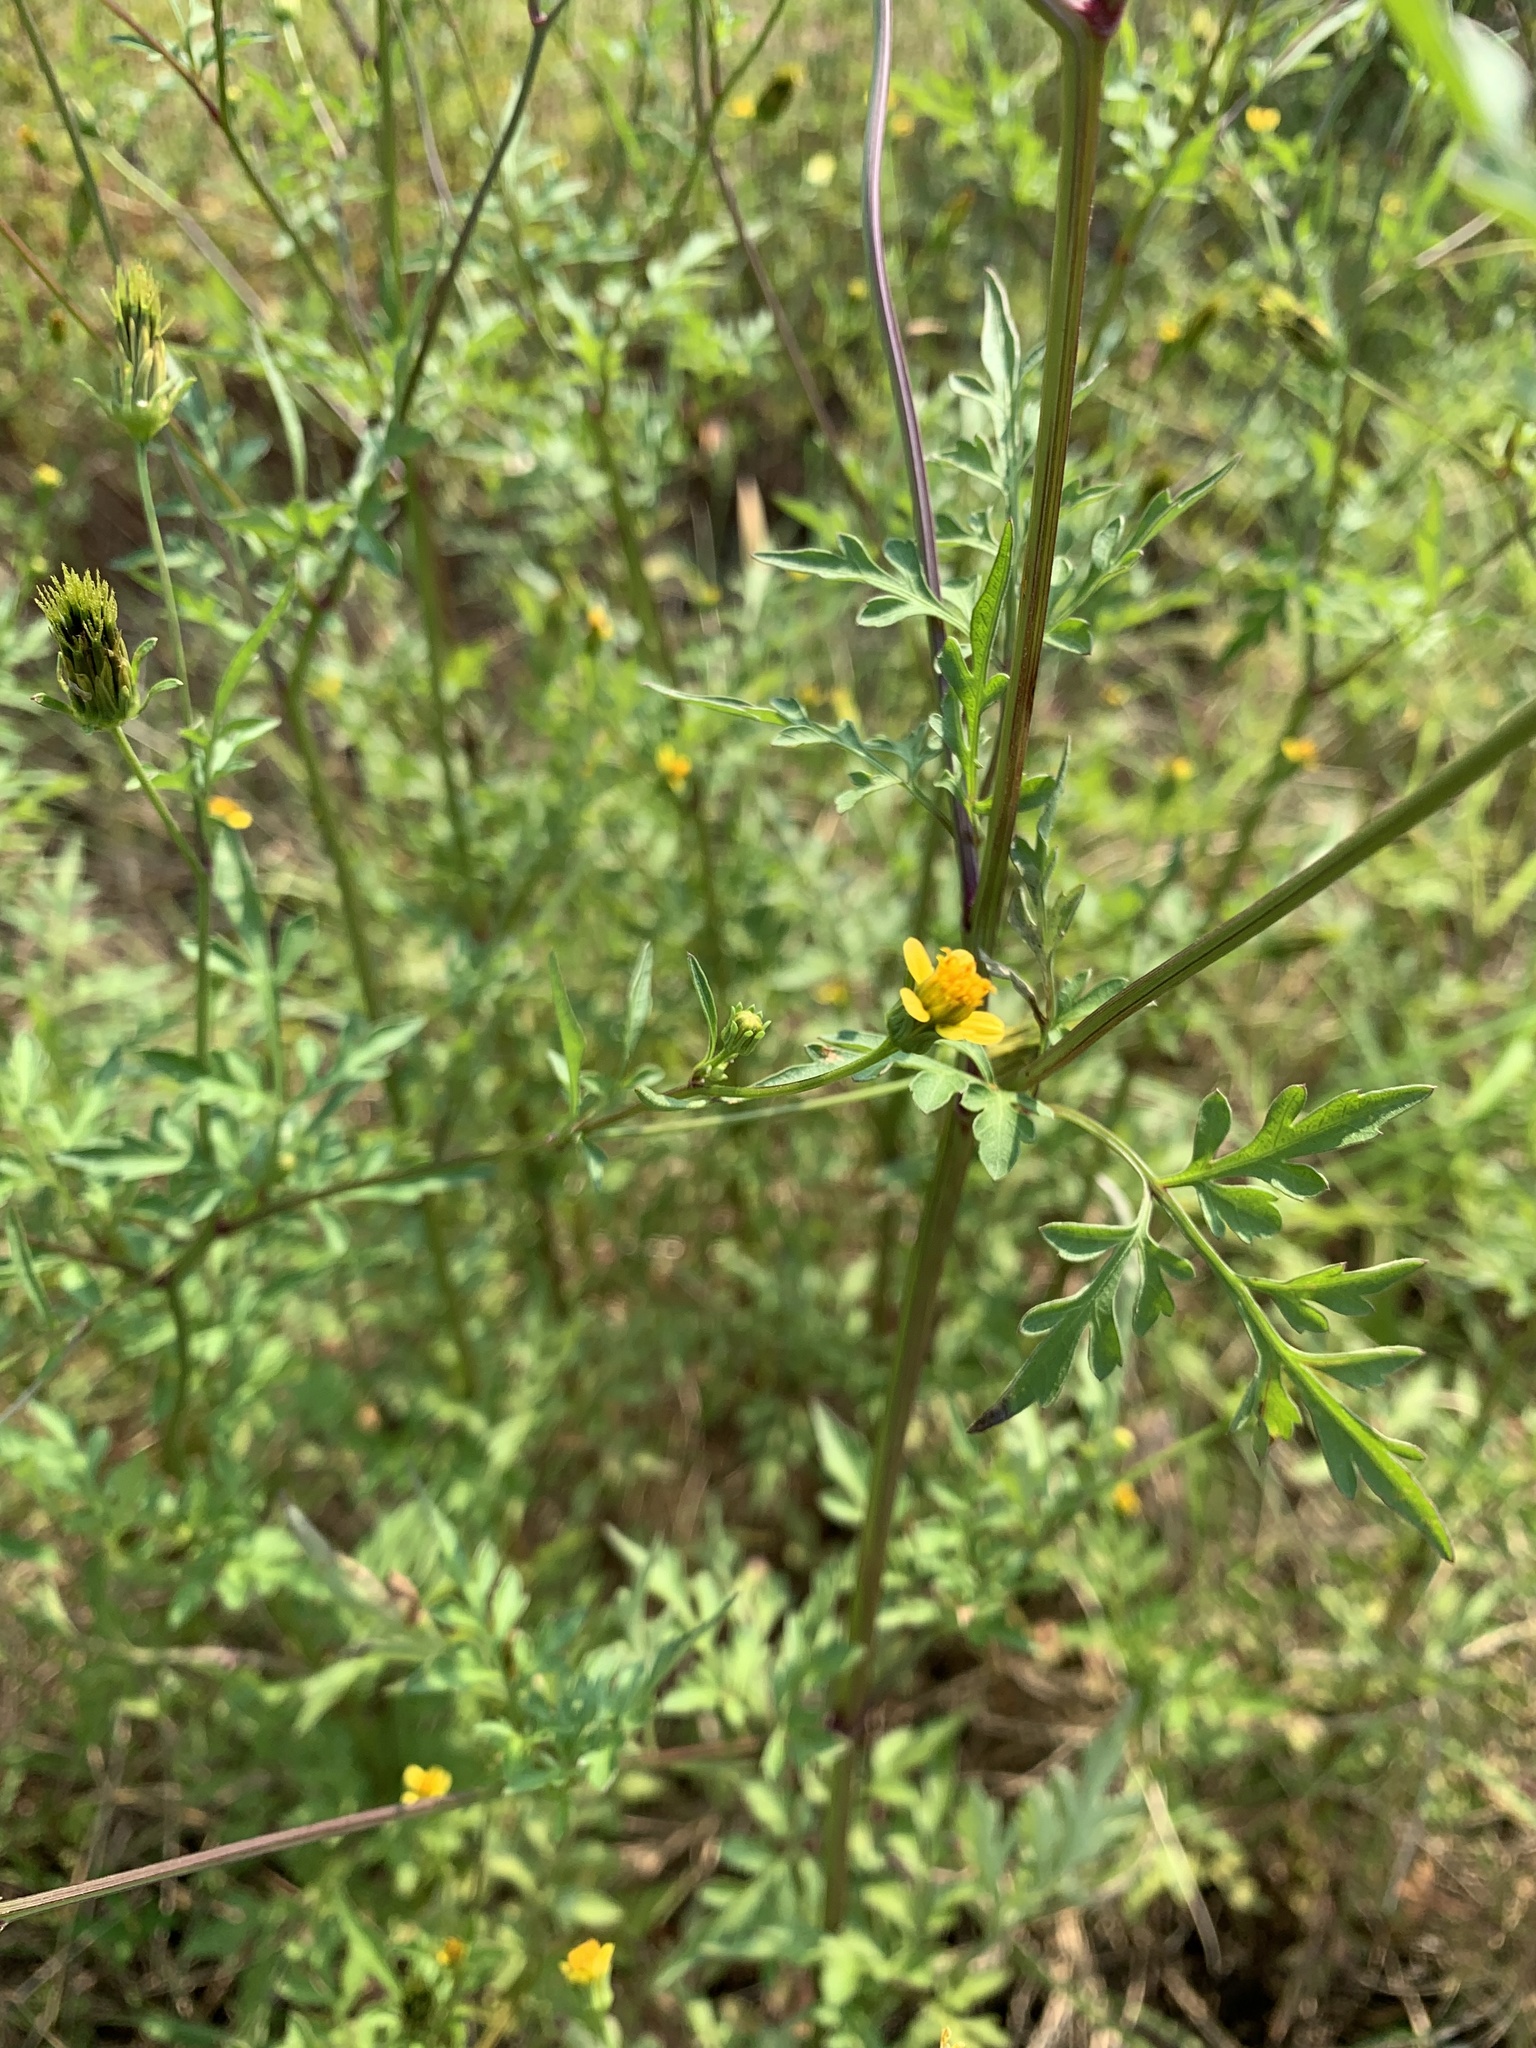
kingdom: Plantae
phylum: Tracheophyta
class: Magnoliopsida
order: Asterales
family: Asteraceae
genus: Bidens
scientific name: Bidens bipinnata
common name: Spanish-needles
